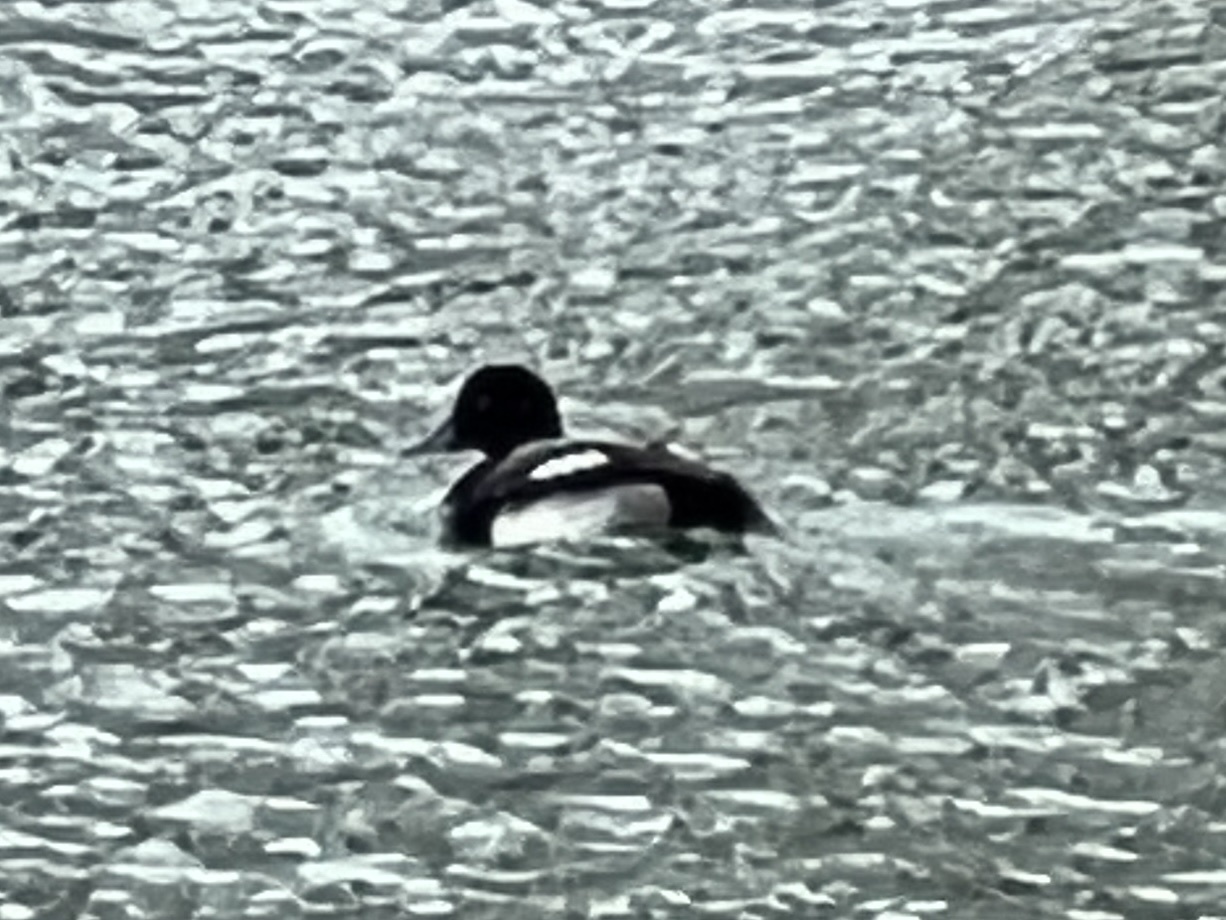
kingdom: Animalia
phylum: Chordata
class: Aves
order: Anseriformes
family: Anatidae
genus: Aythya
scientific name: Aythya affinis
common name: Lesser scaup
